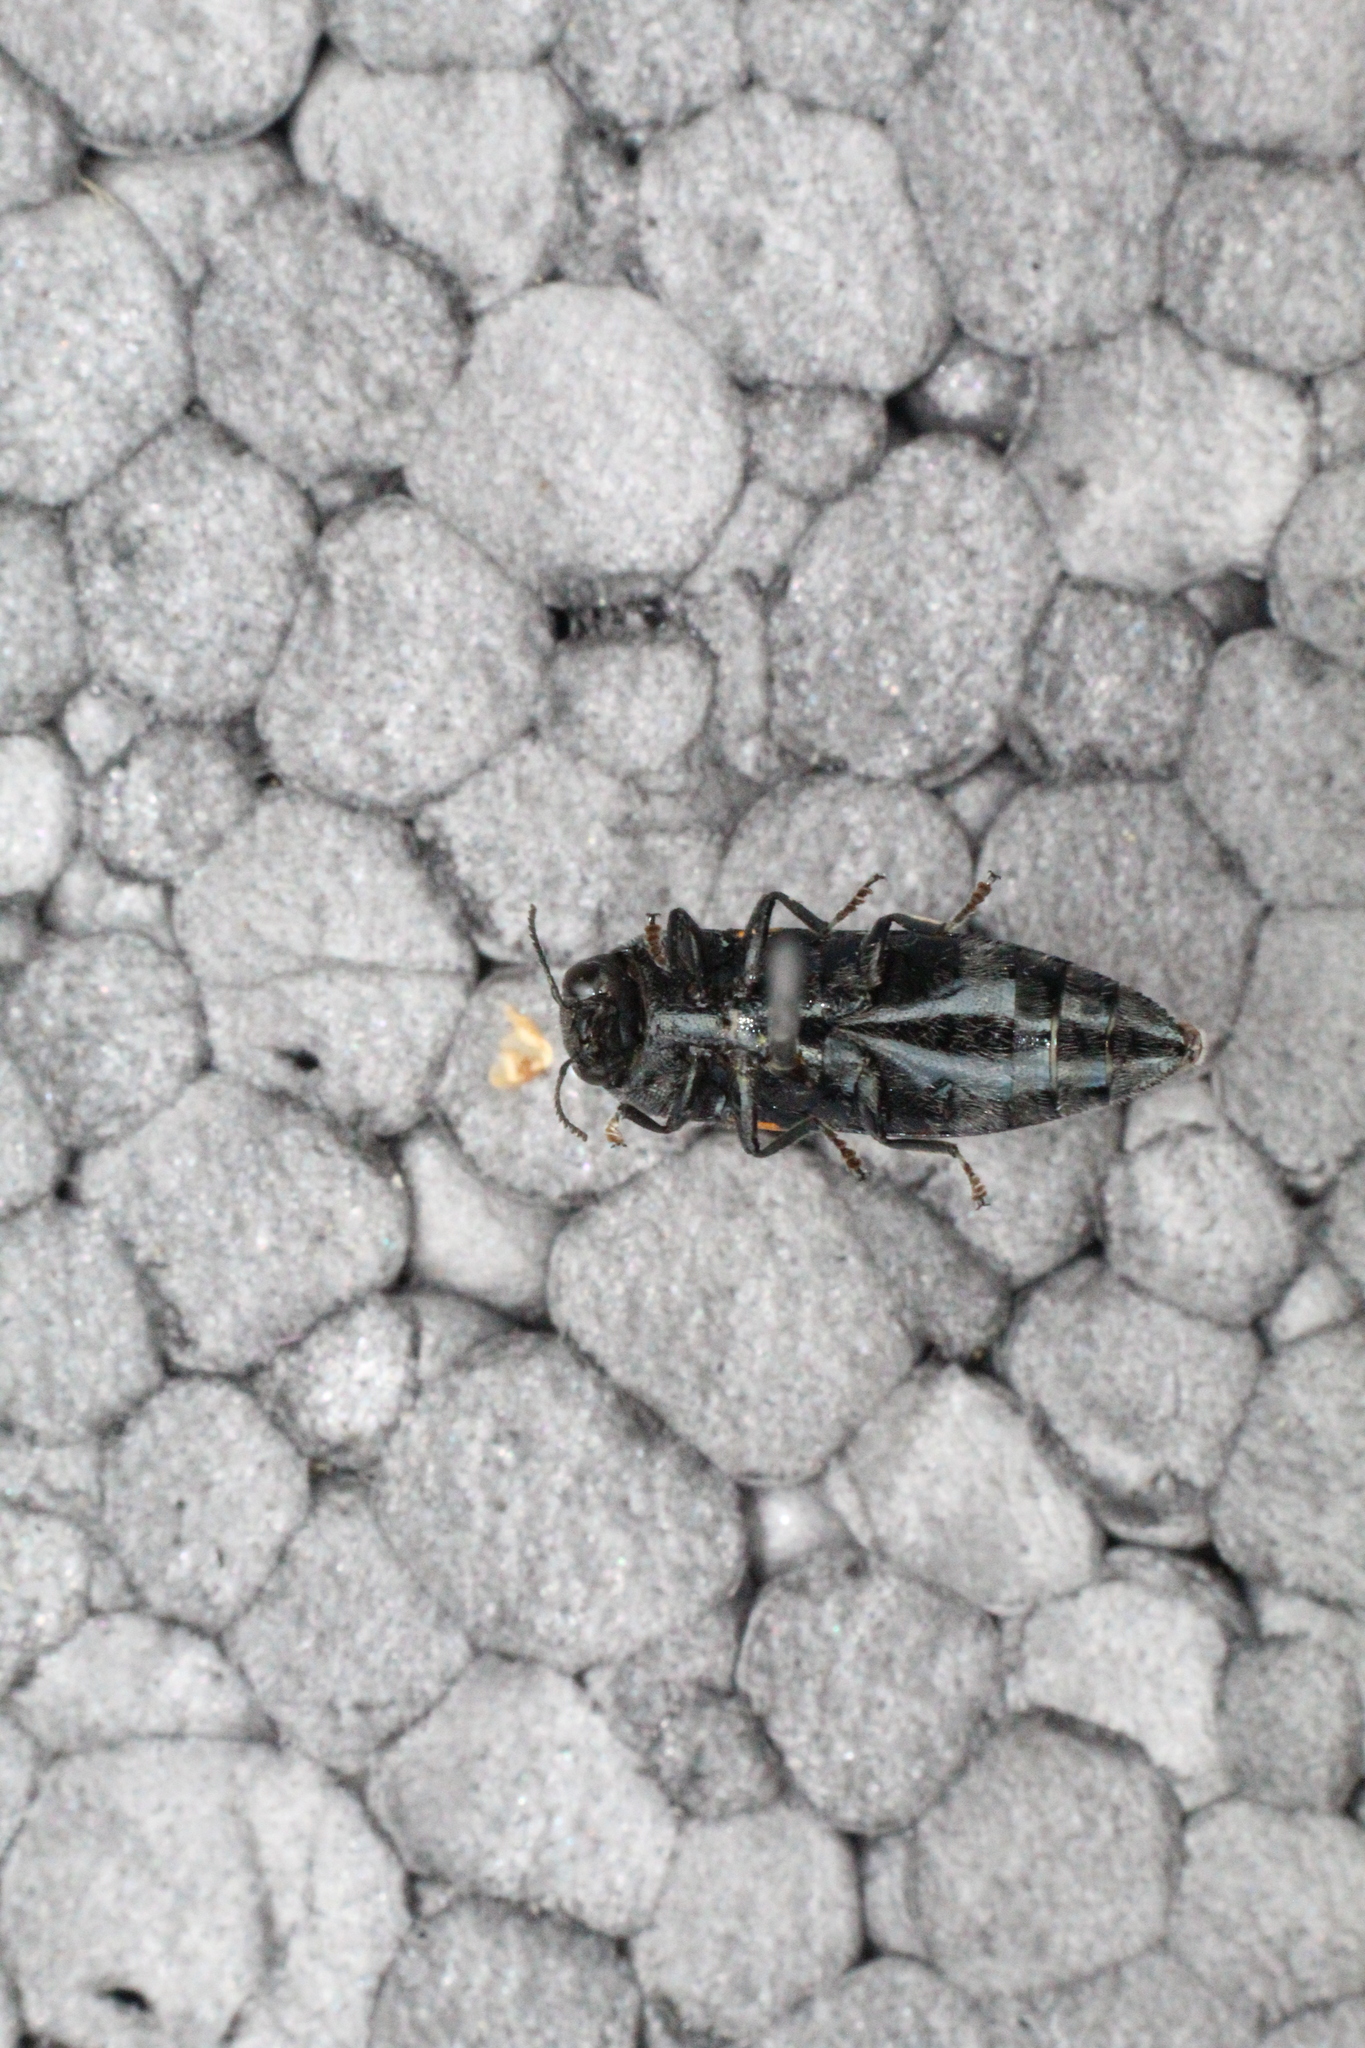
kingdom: Animalia
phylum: Arthropoda
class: Insecta
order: Coleoptera
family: Buprestidae
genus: Ptosima
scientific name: Ptosima undecimmaculata
